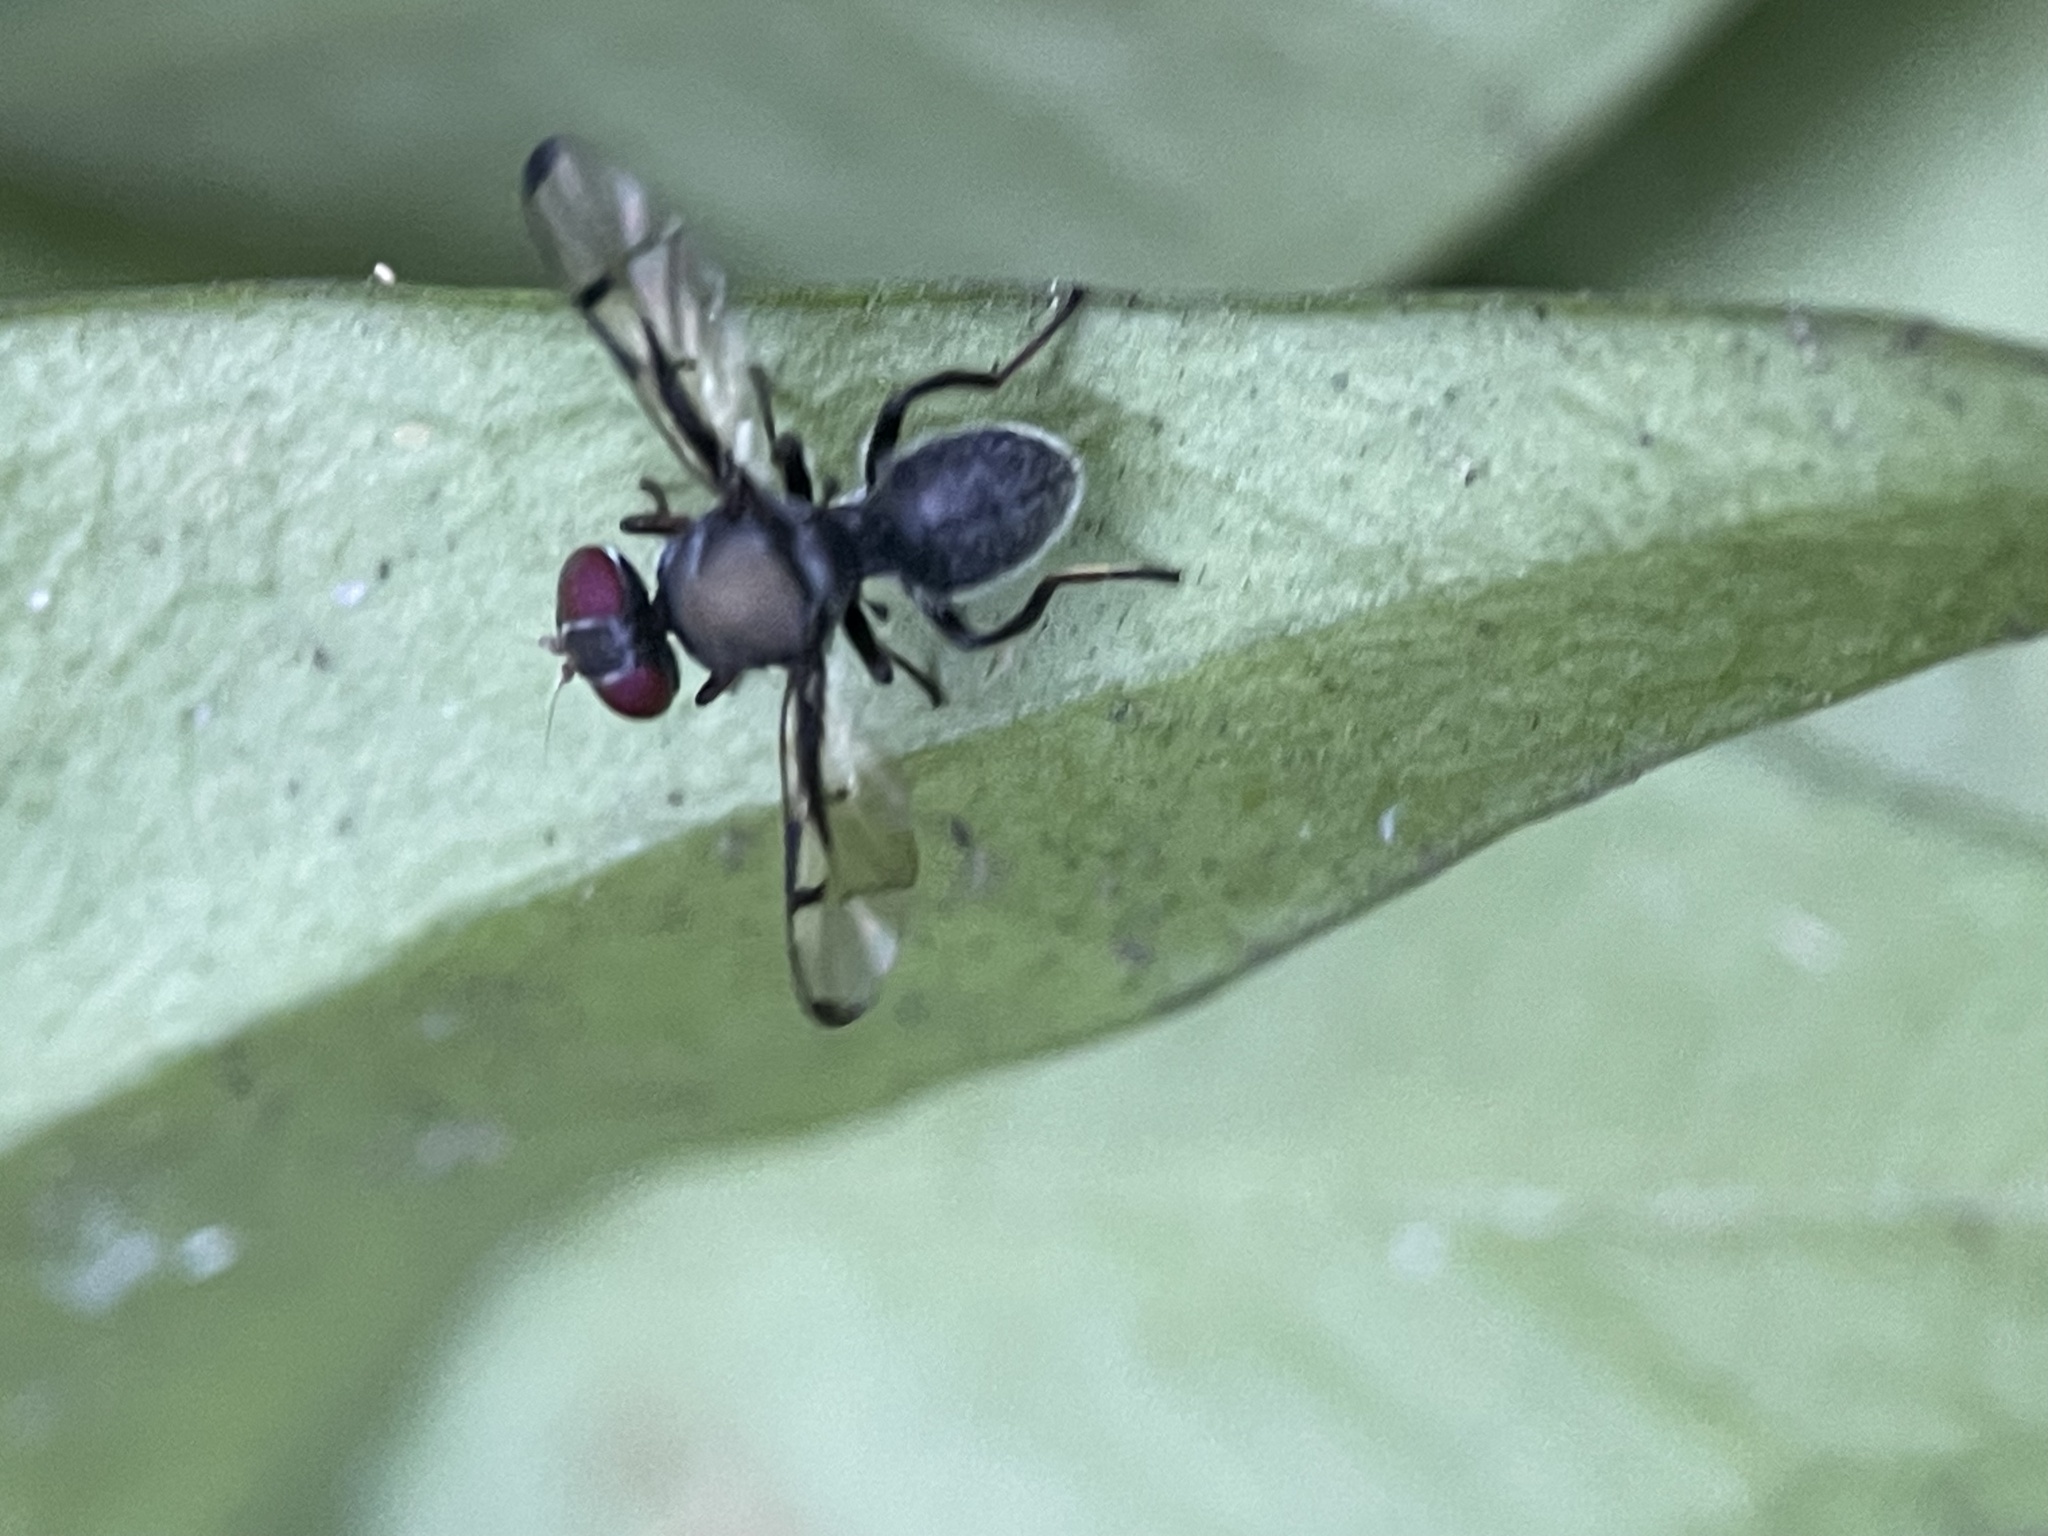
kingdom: Animalia
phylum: Arthropoda
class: Insecta
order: Diptera
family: Platystomatidae
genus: Pogonortalis
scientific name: Pogonortalis doclea
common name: Boatman fly
